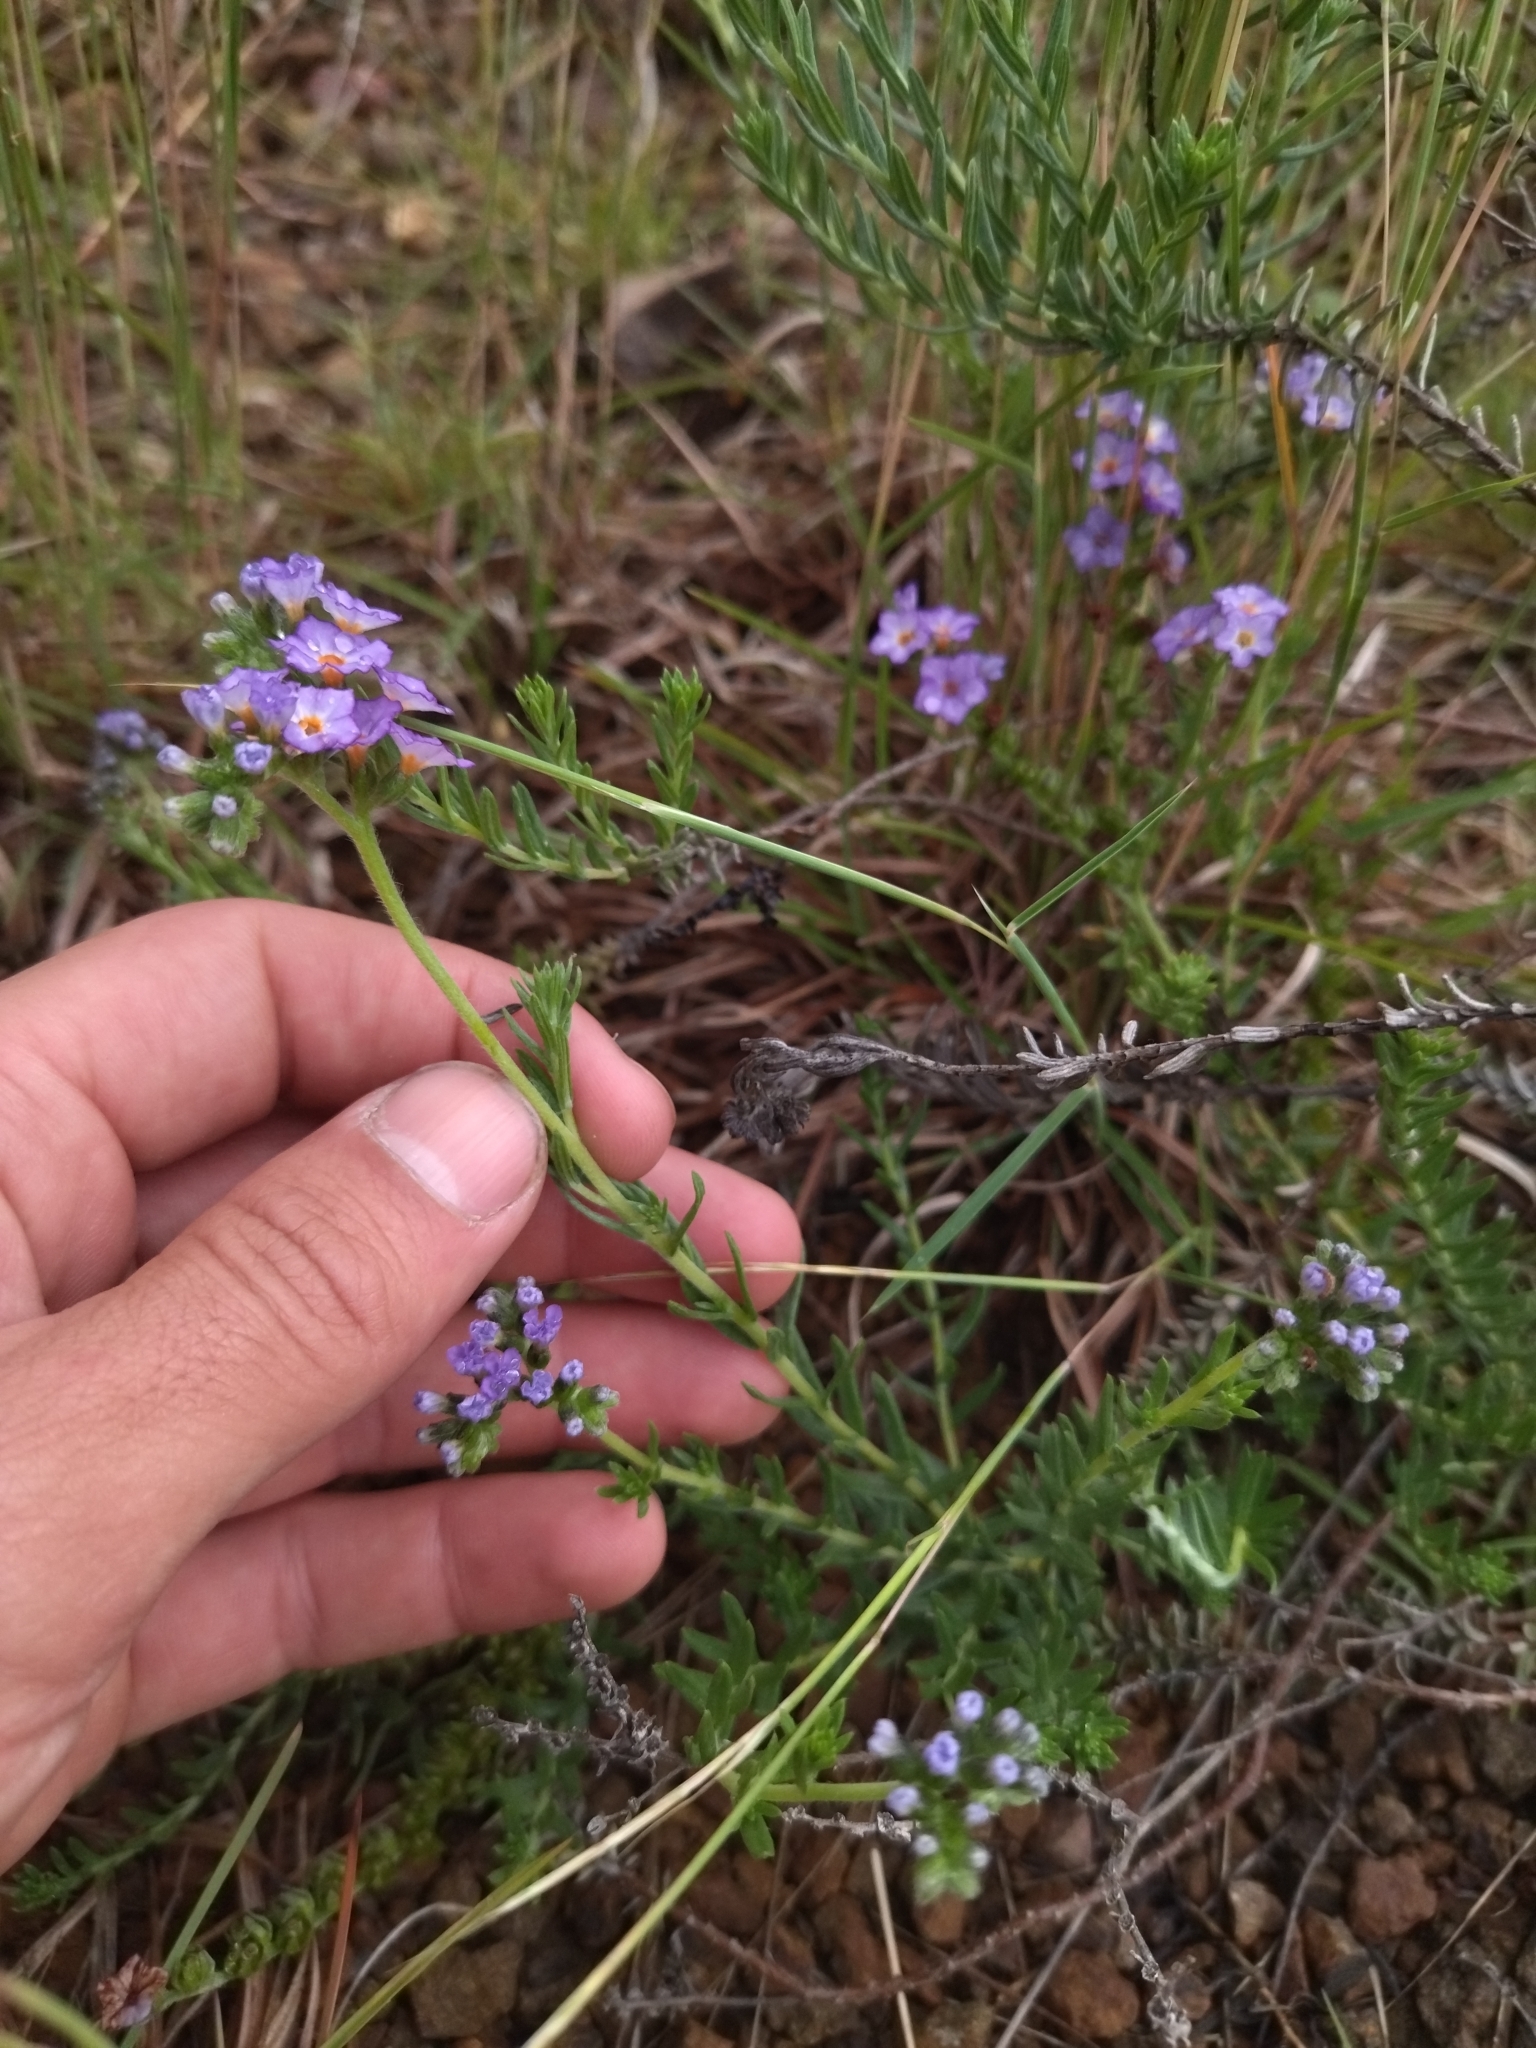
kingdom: Plantae
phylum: Tracheophyta
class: Magnoliopsida
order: Boraginales
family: Heliotropiaceae
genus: Heliotropium
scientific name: Heliotropium phylicoides
